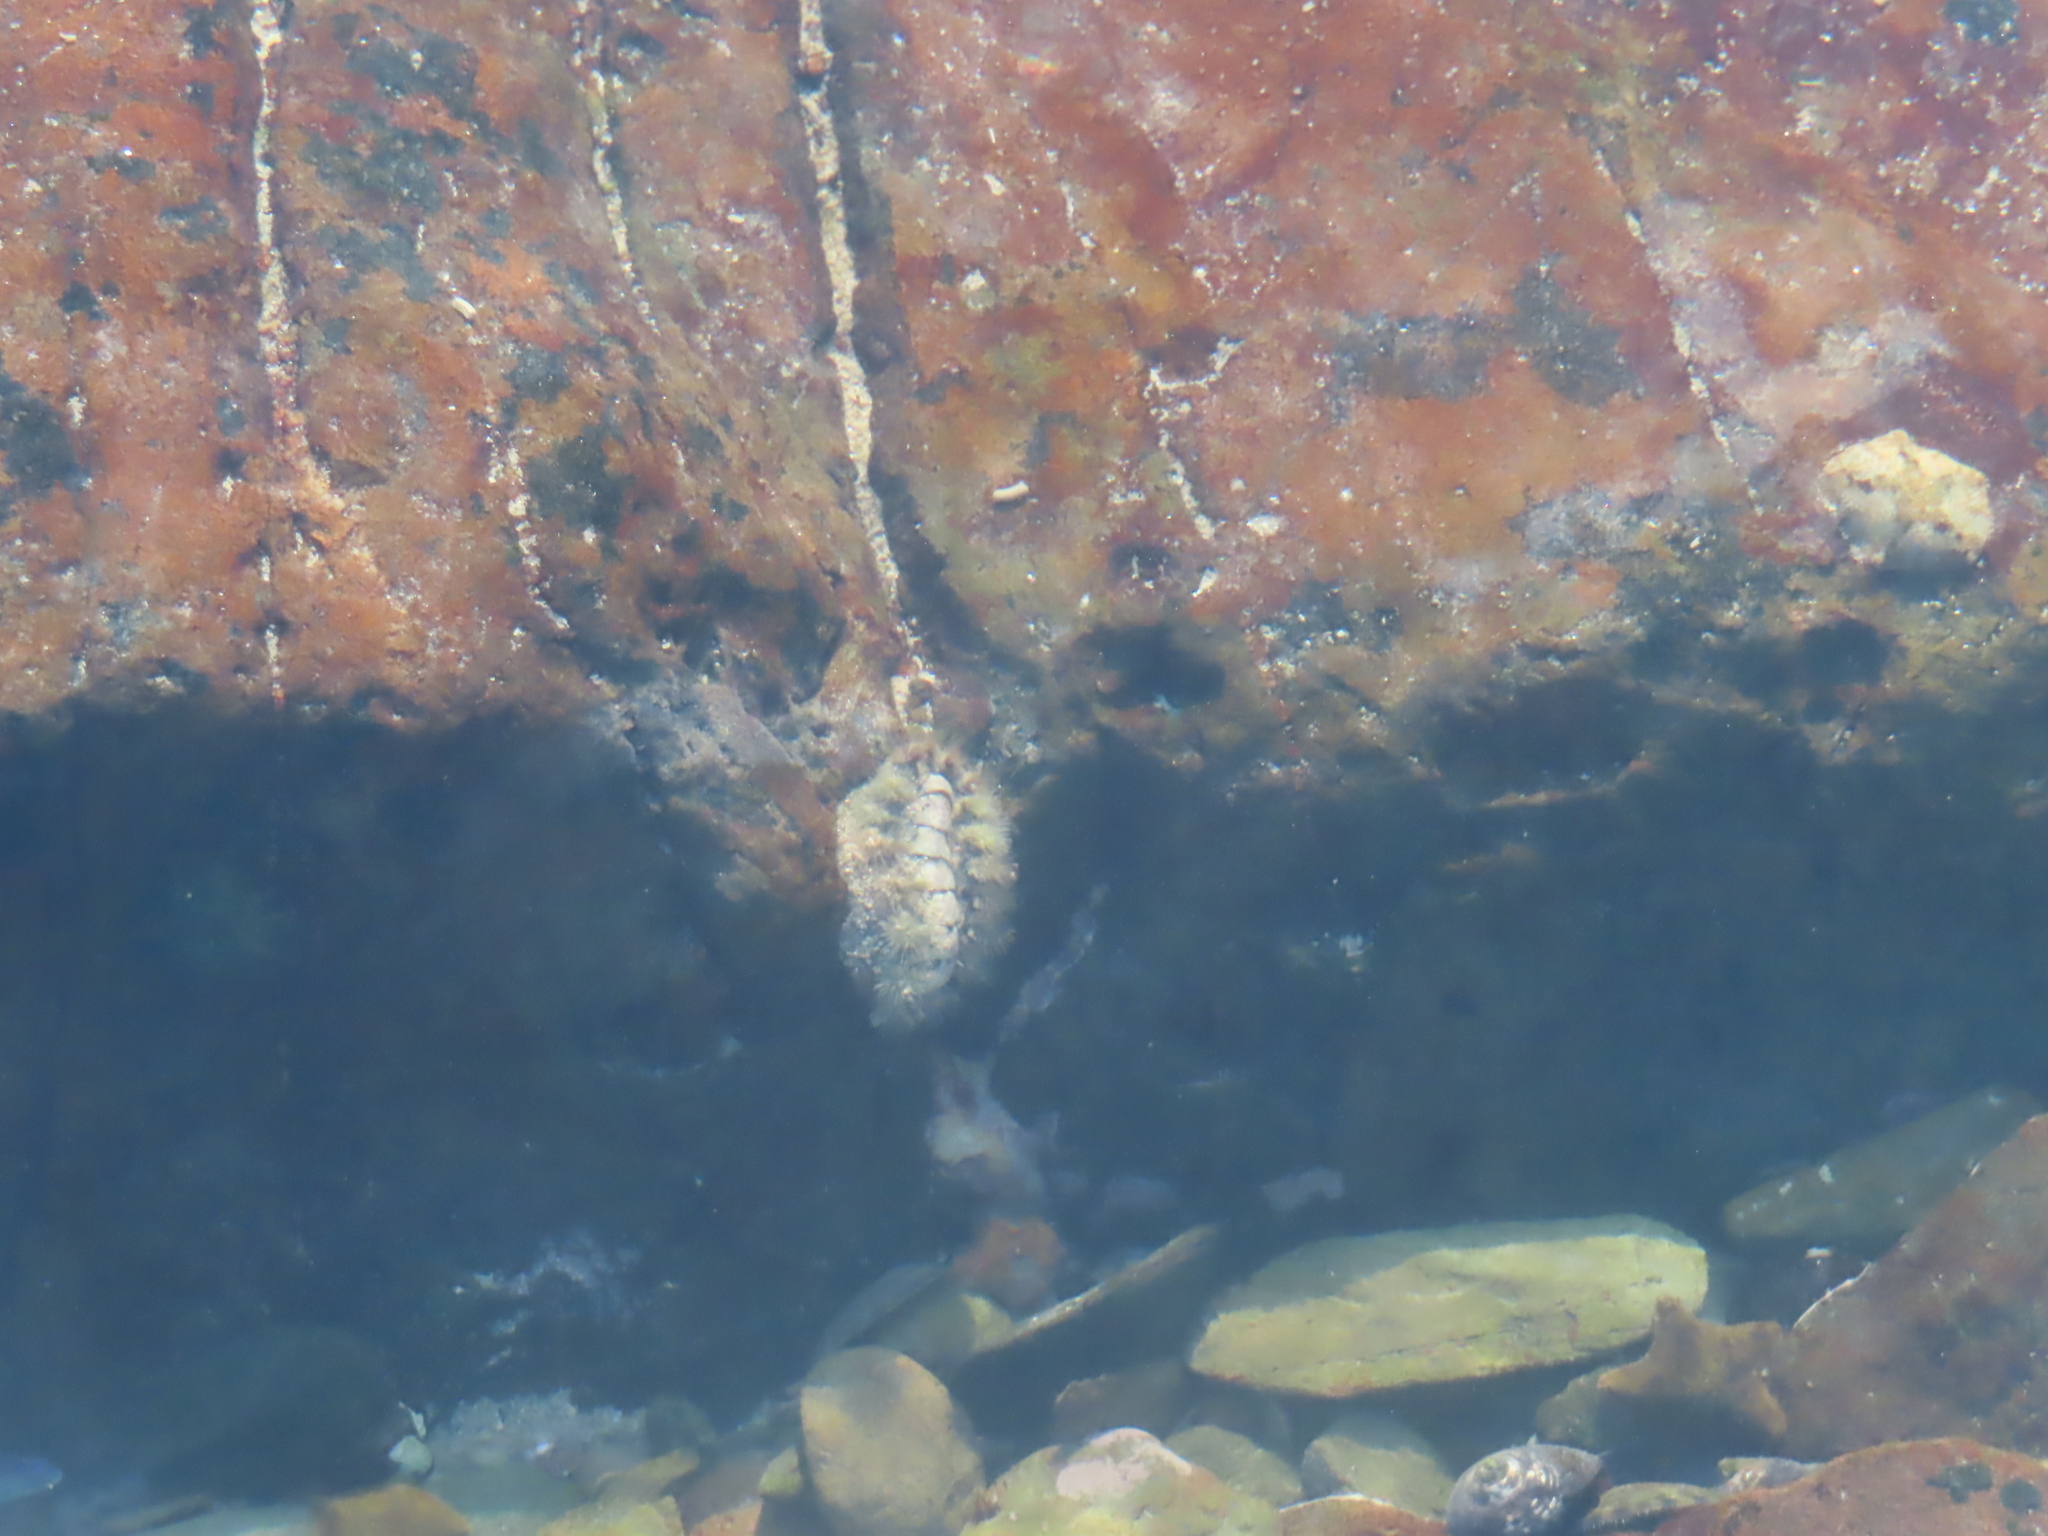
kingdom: Animalia
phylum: Mollusca
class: Polyplacophora
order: Chitonida
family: Acanthochitonidae
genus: Acanthochitona
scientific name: Acanthochitona garnoti
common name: Spiny chiton
